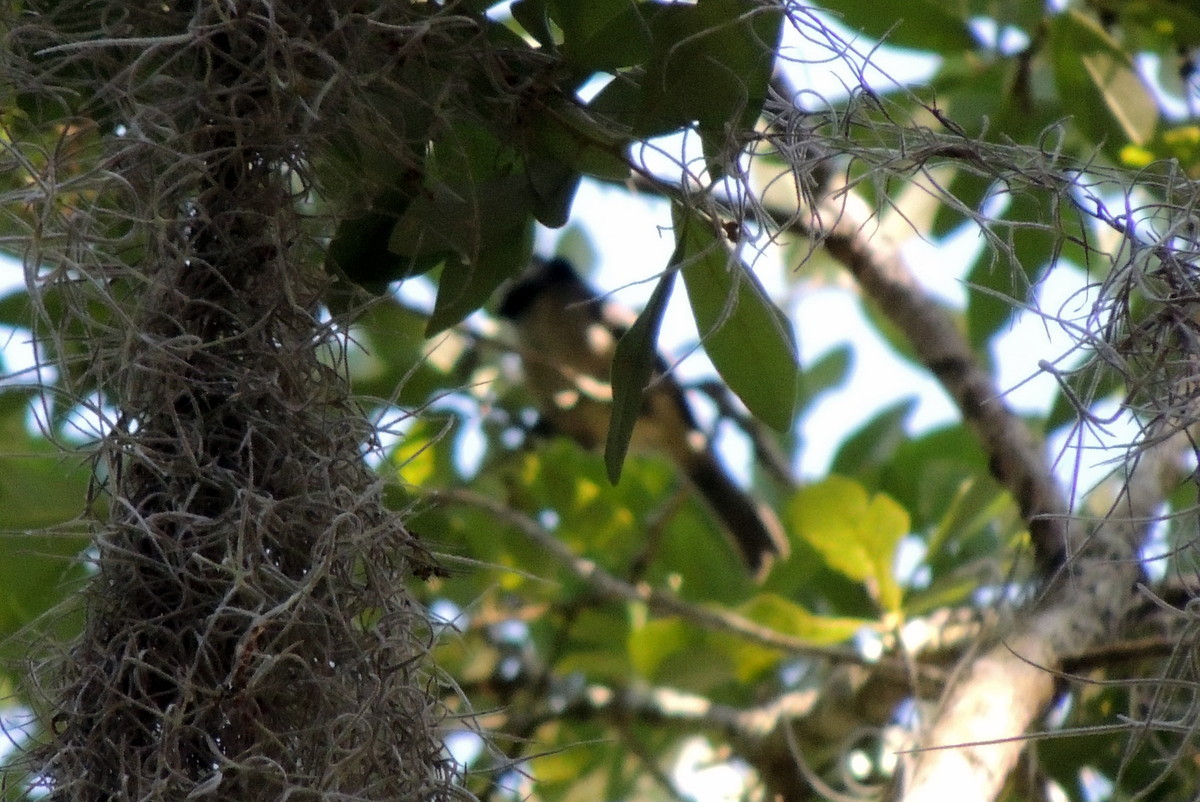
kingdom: Animalia
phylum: Chordata
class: Aves
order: Passeriformes
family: Paridae
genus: Baeolophus
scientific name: Baeolophus bicolor
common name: Tufted titmouse
